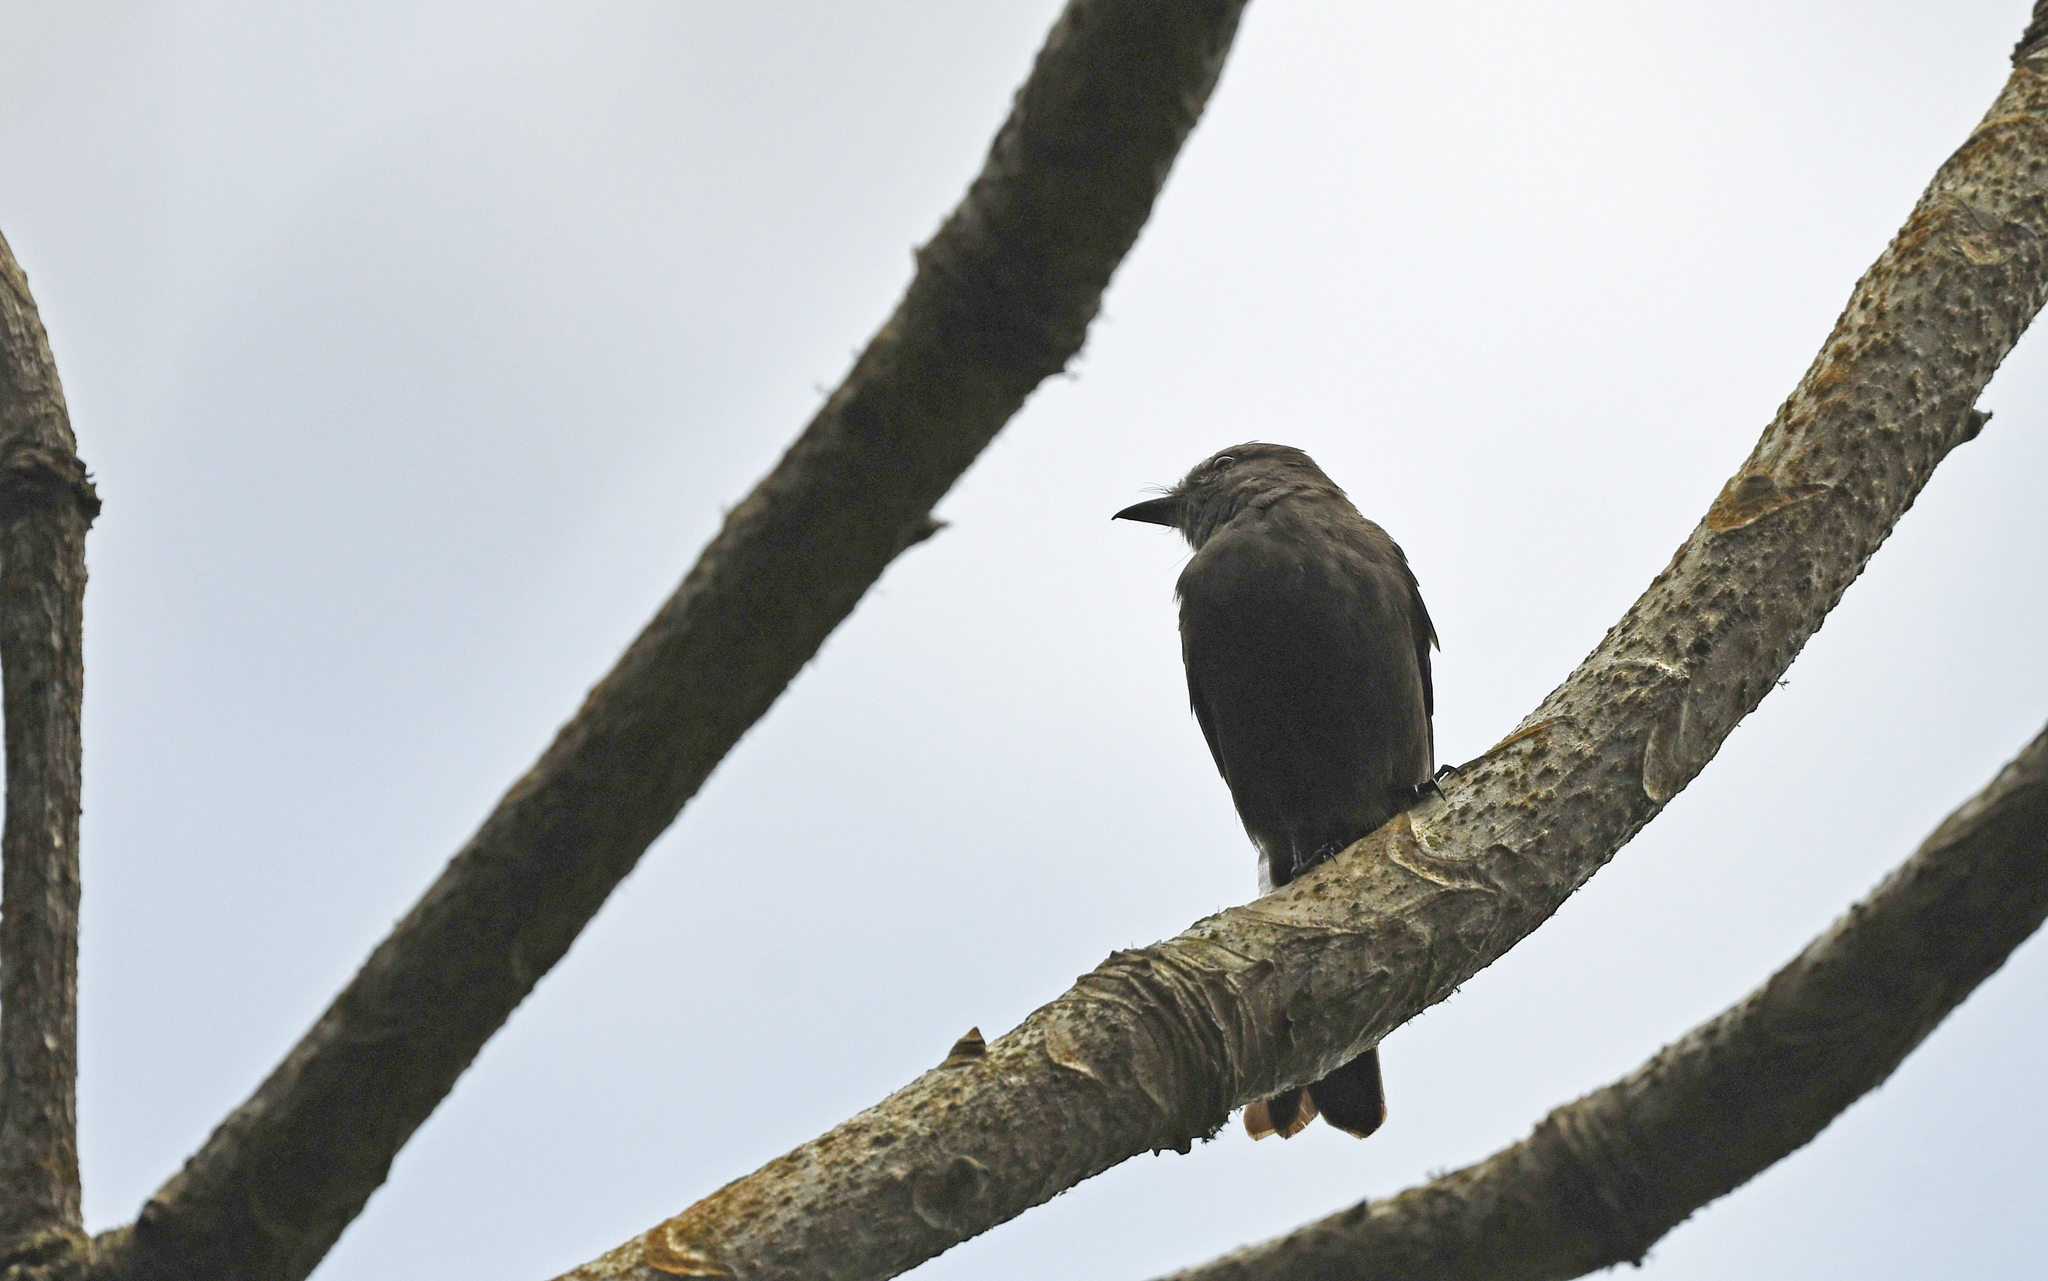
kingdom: Animalia
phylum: Chordata
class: Aves
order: Passeriformes
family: Tyrannidae
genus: Myiotheretes
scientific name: Myiotheretes fumigatus
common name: Smoky bush tyrant
